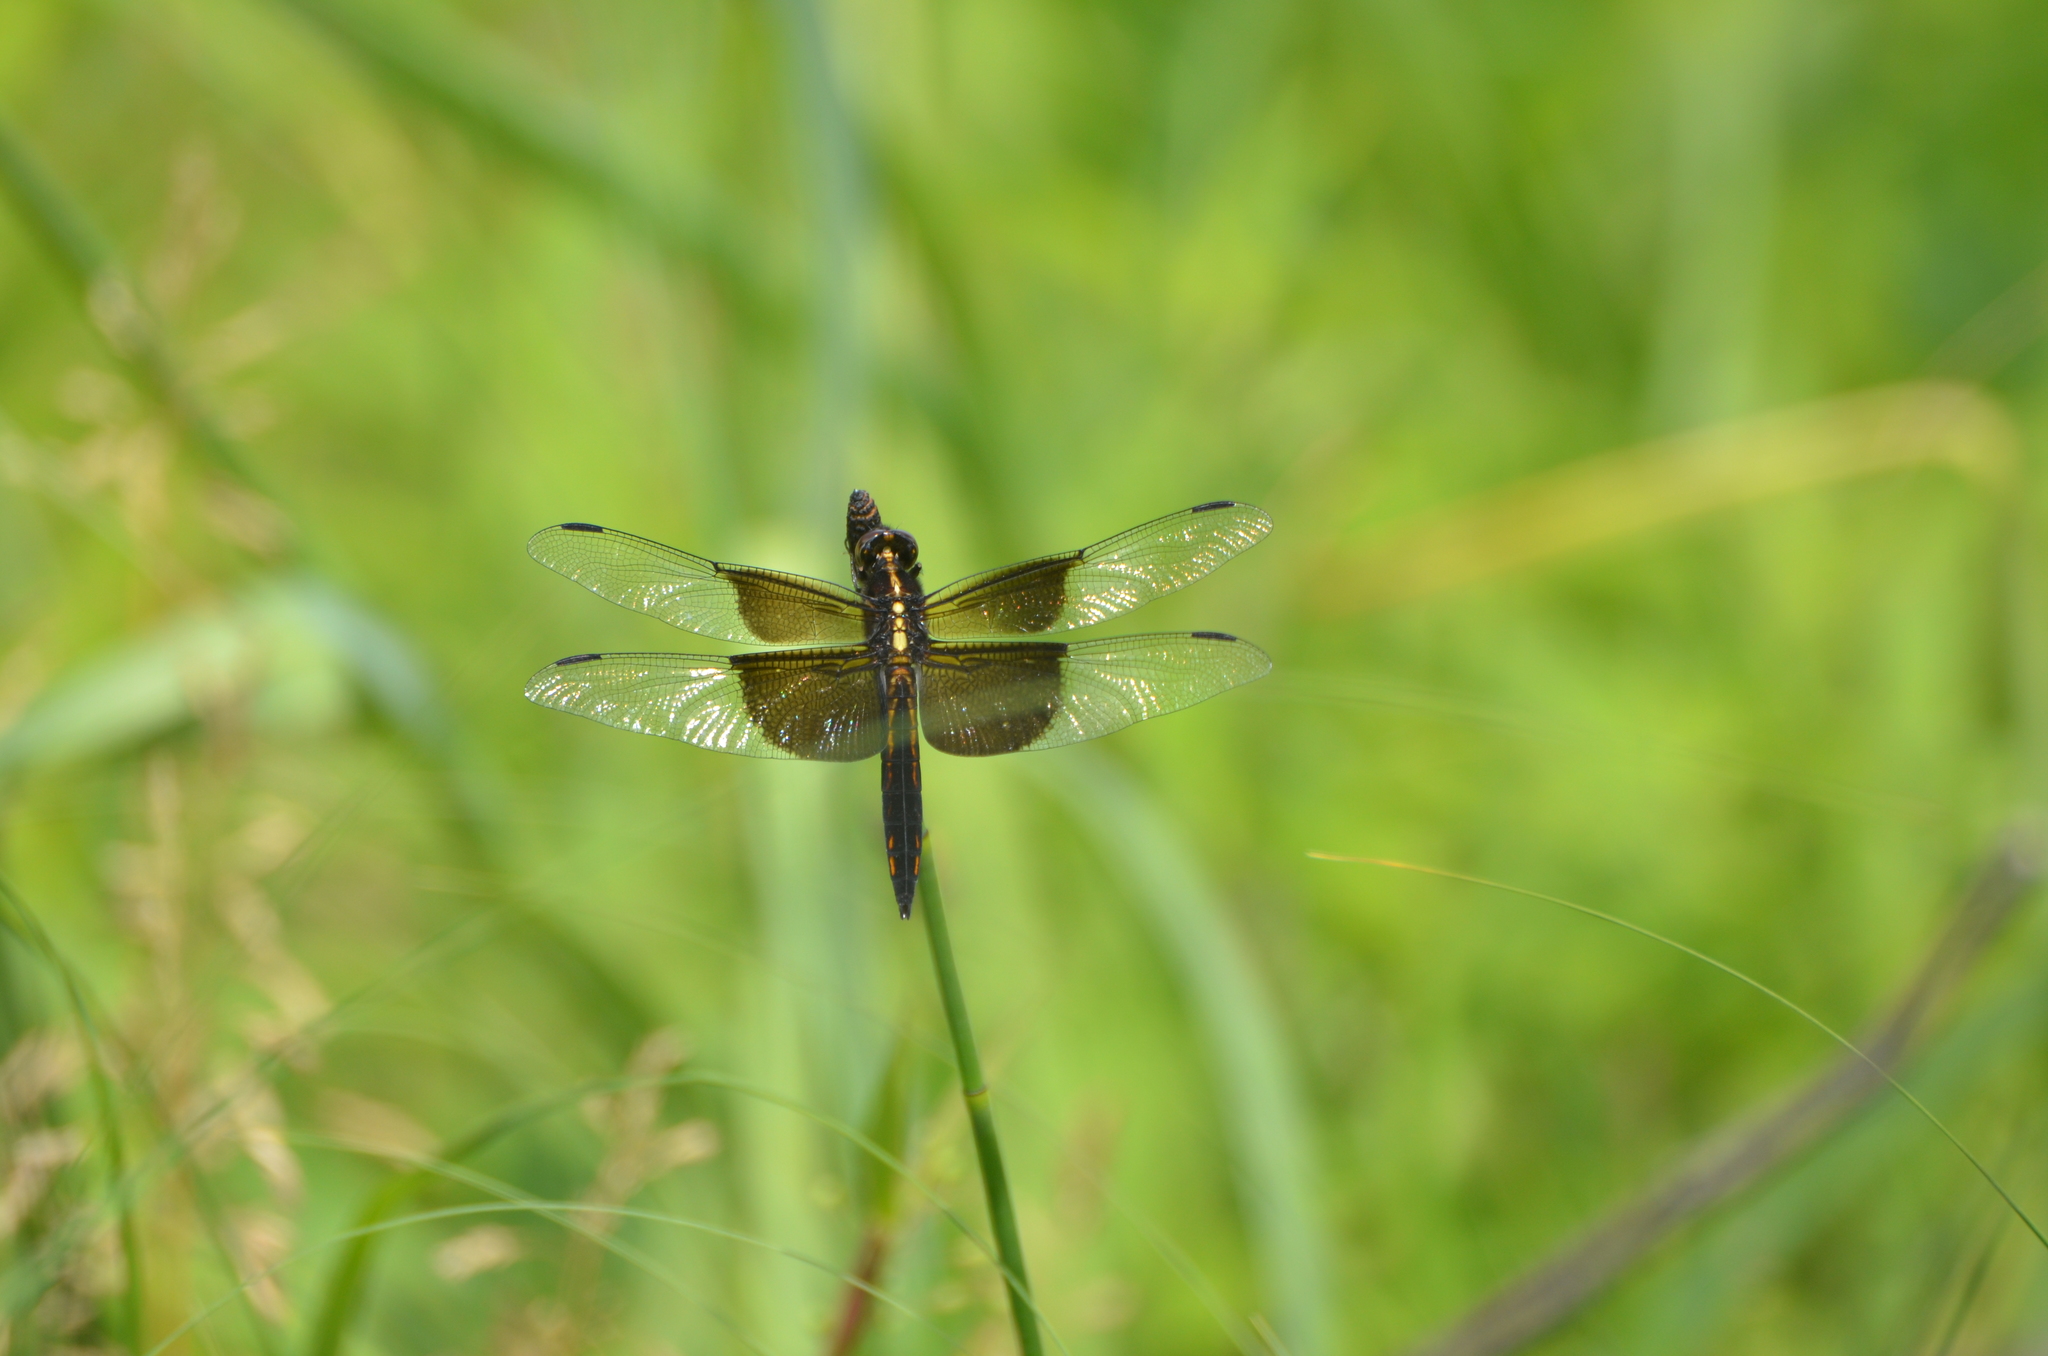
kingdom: Animalia
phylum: Arthropoda
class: Insecta
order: Odonata
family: Libellulidae
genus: Libellula
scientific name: Libellula luctuosa
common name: Widow skimmer
